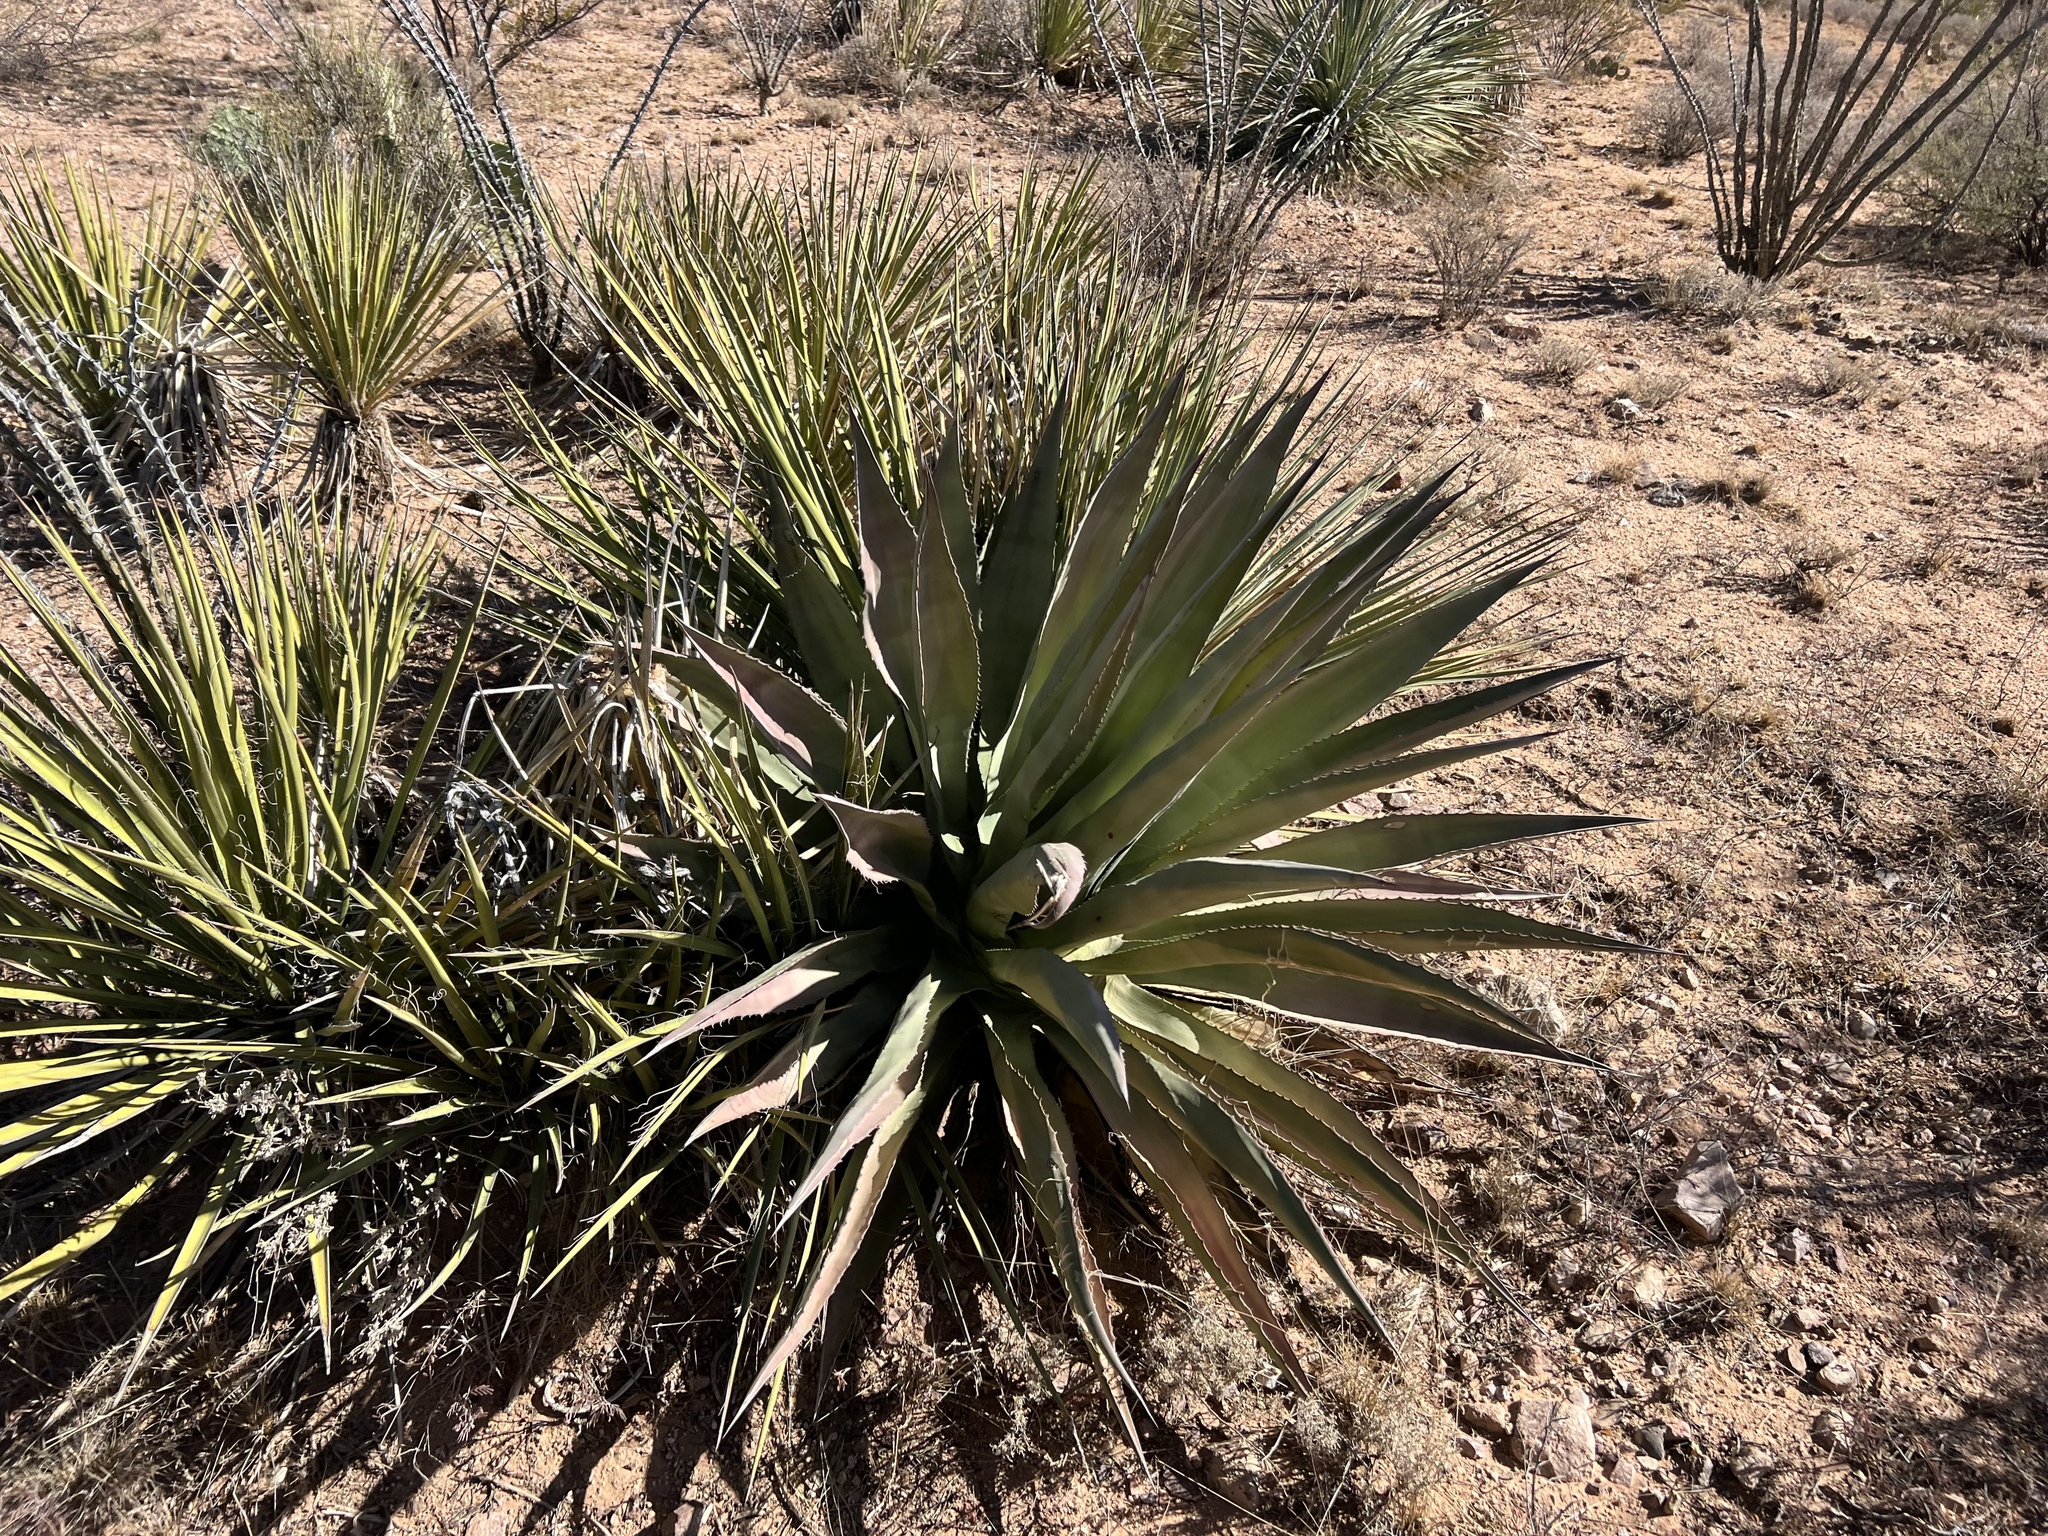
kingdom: Plantae
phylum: Tracheophyta
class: Liliopsida
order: Asparagales
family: Asparagaceae
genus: Agave
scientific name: Agave palmeri
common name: Palmer agave
